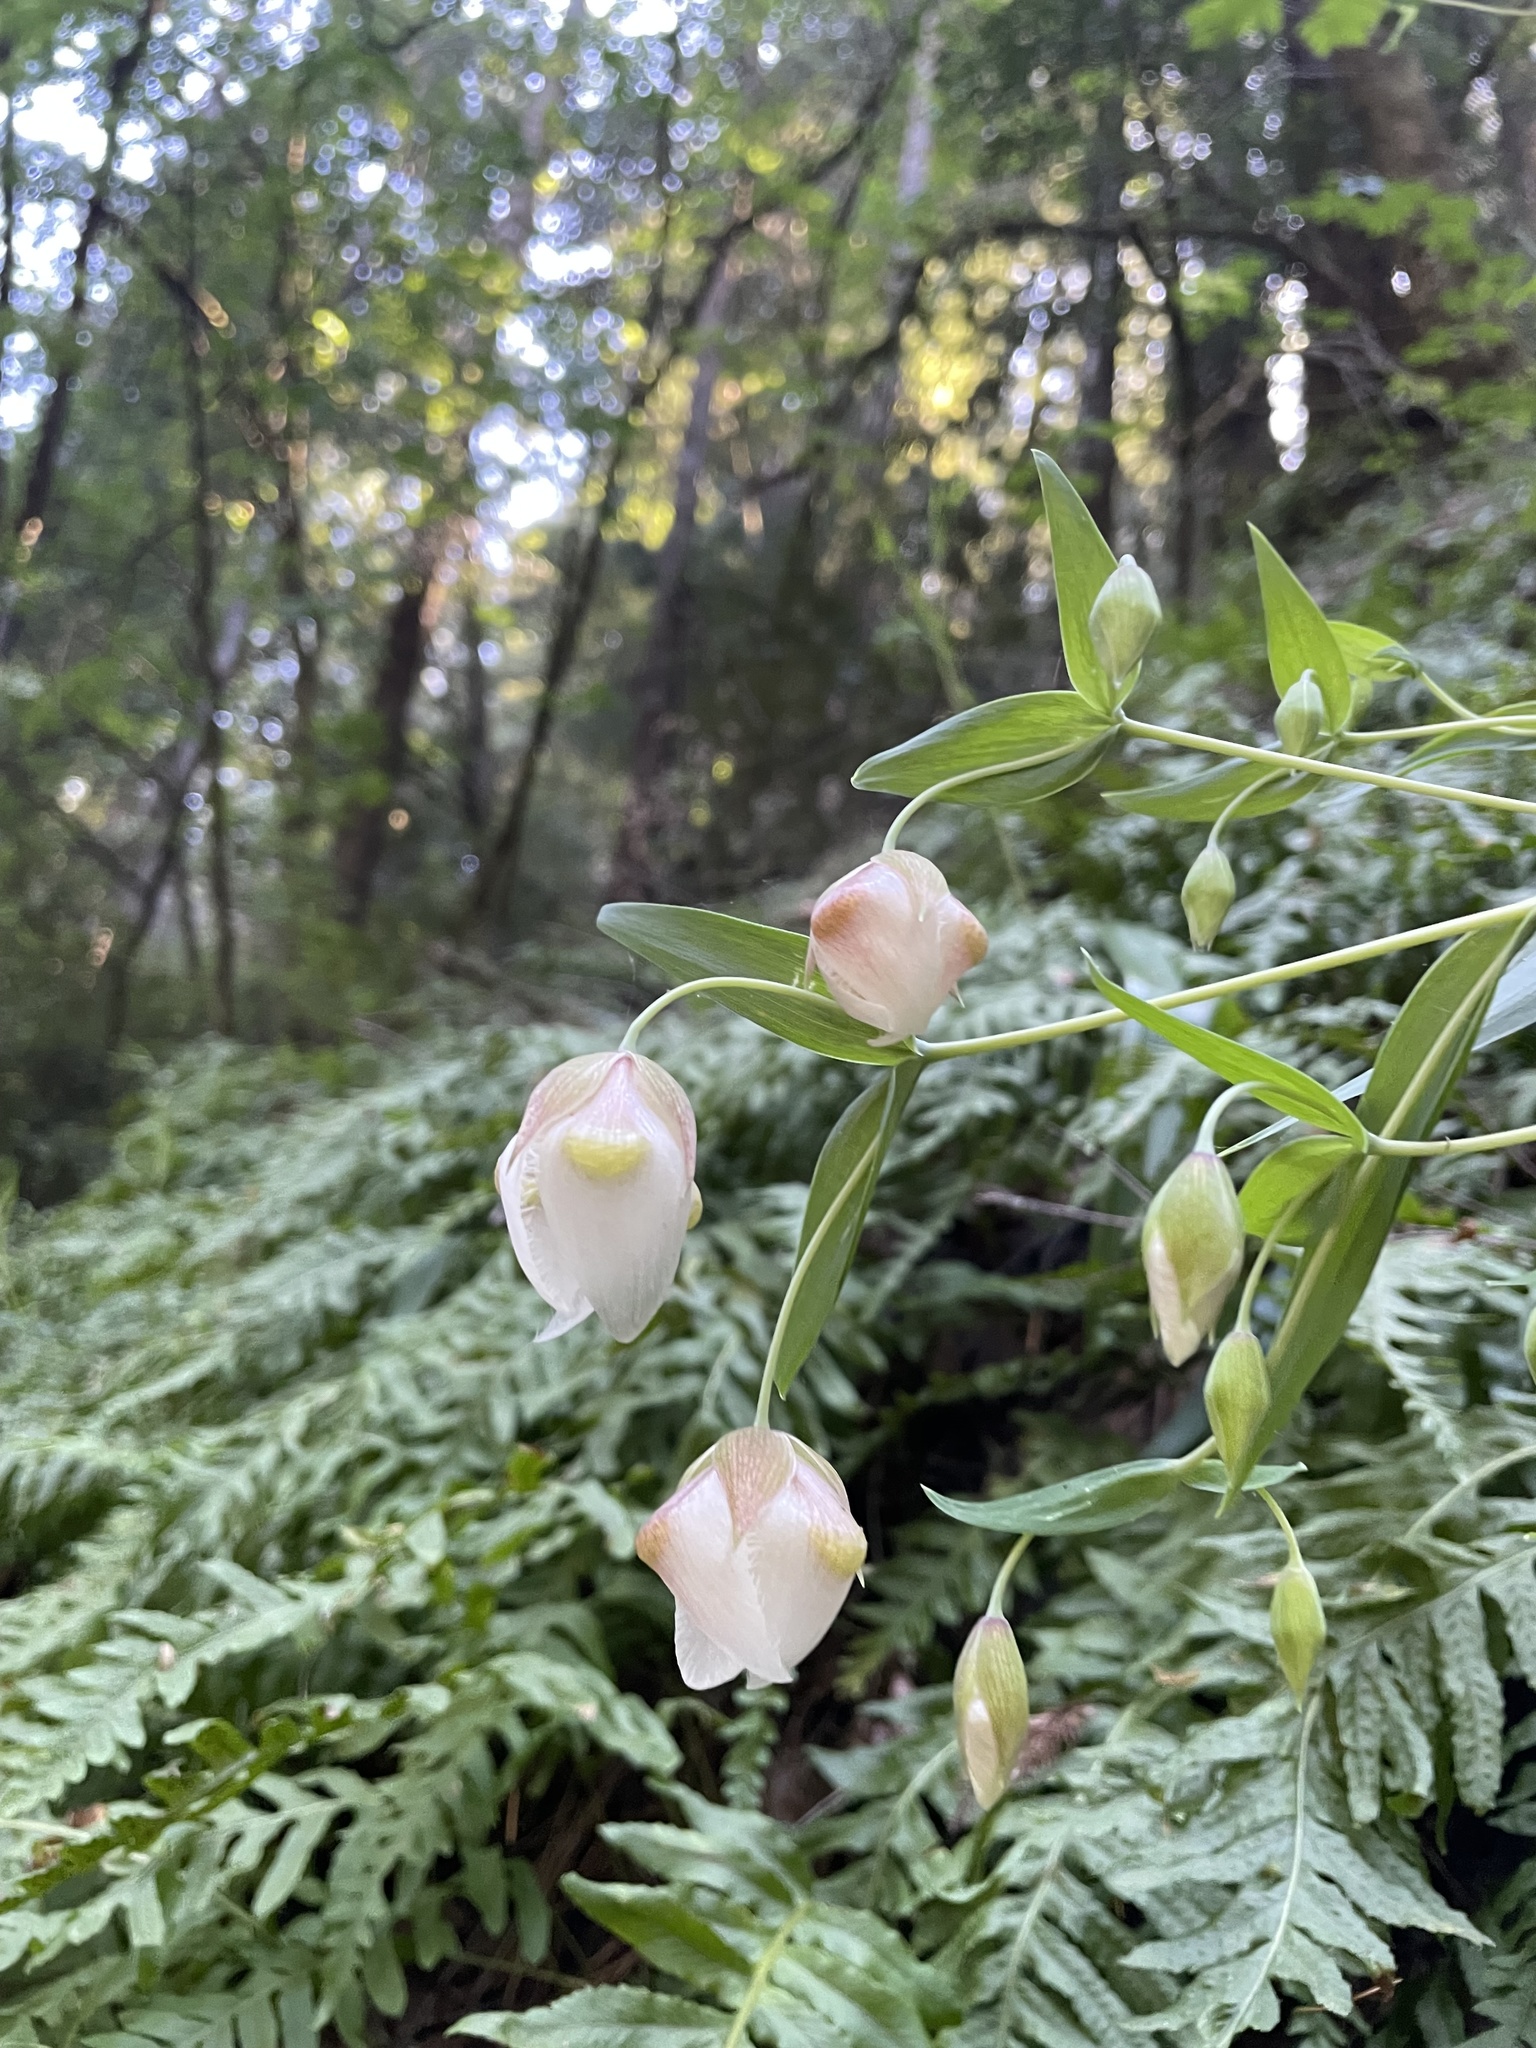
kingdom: Plantae
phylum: Tracheophyta
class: Liliopsida
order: Liliales
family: Liliaceae
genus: Calochortus
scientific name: Calochortus albus
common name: Fairy-lantern
